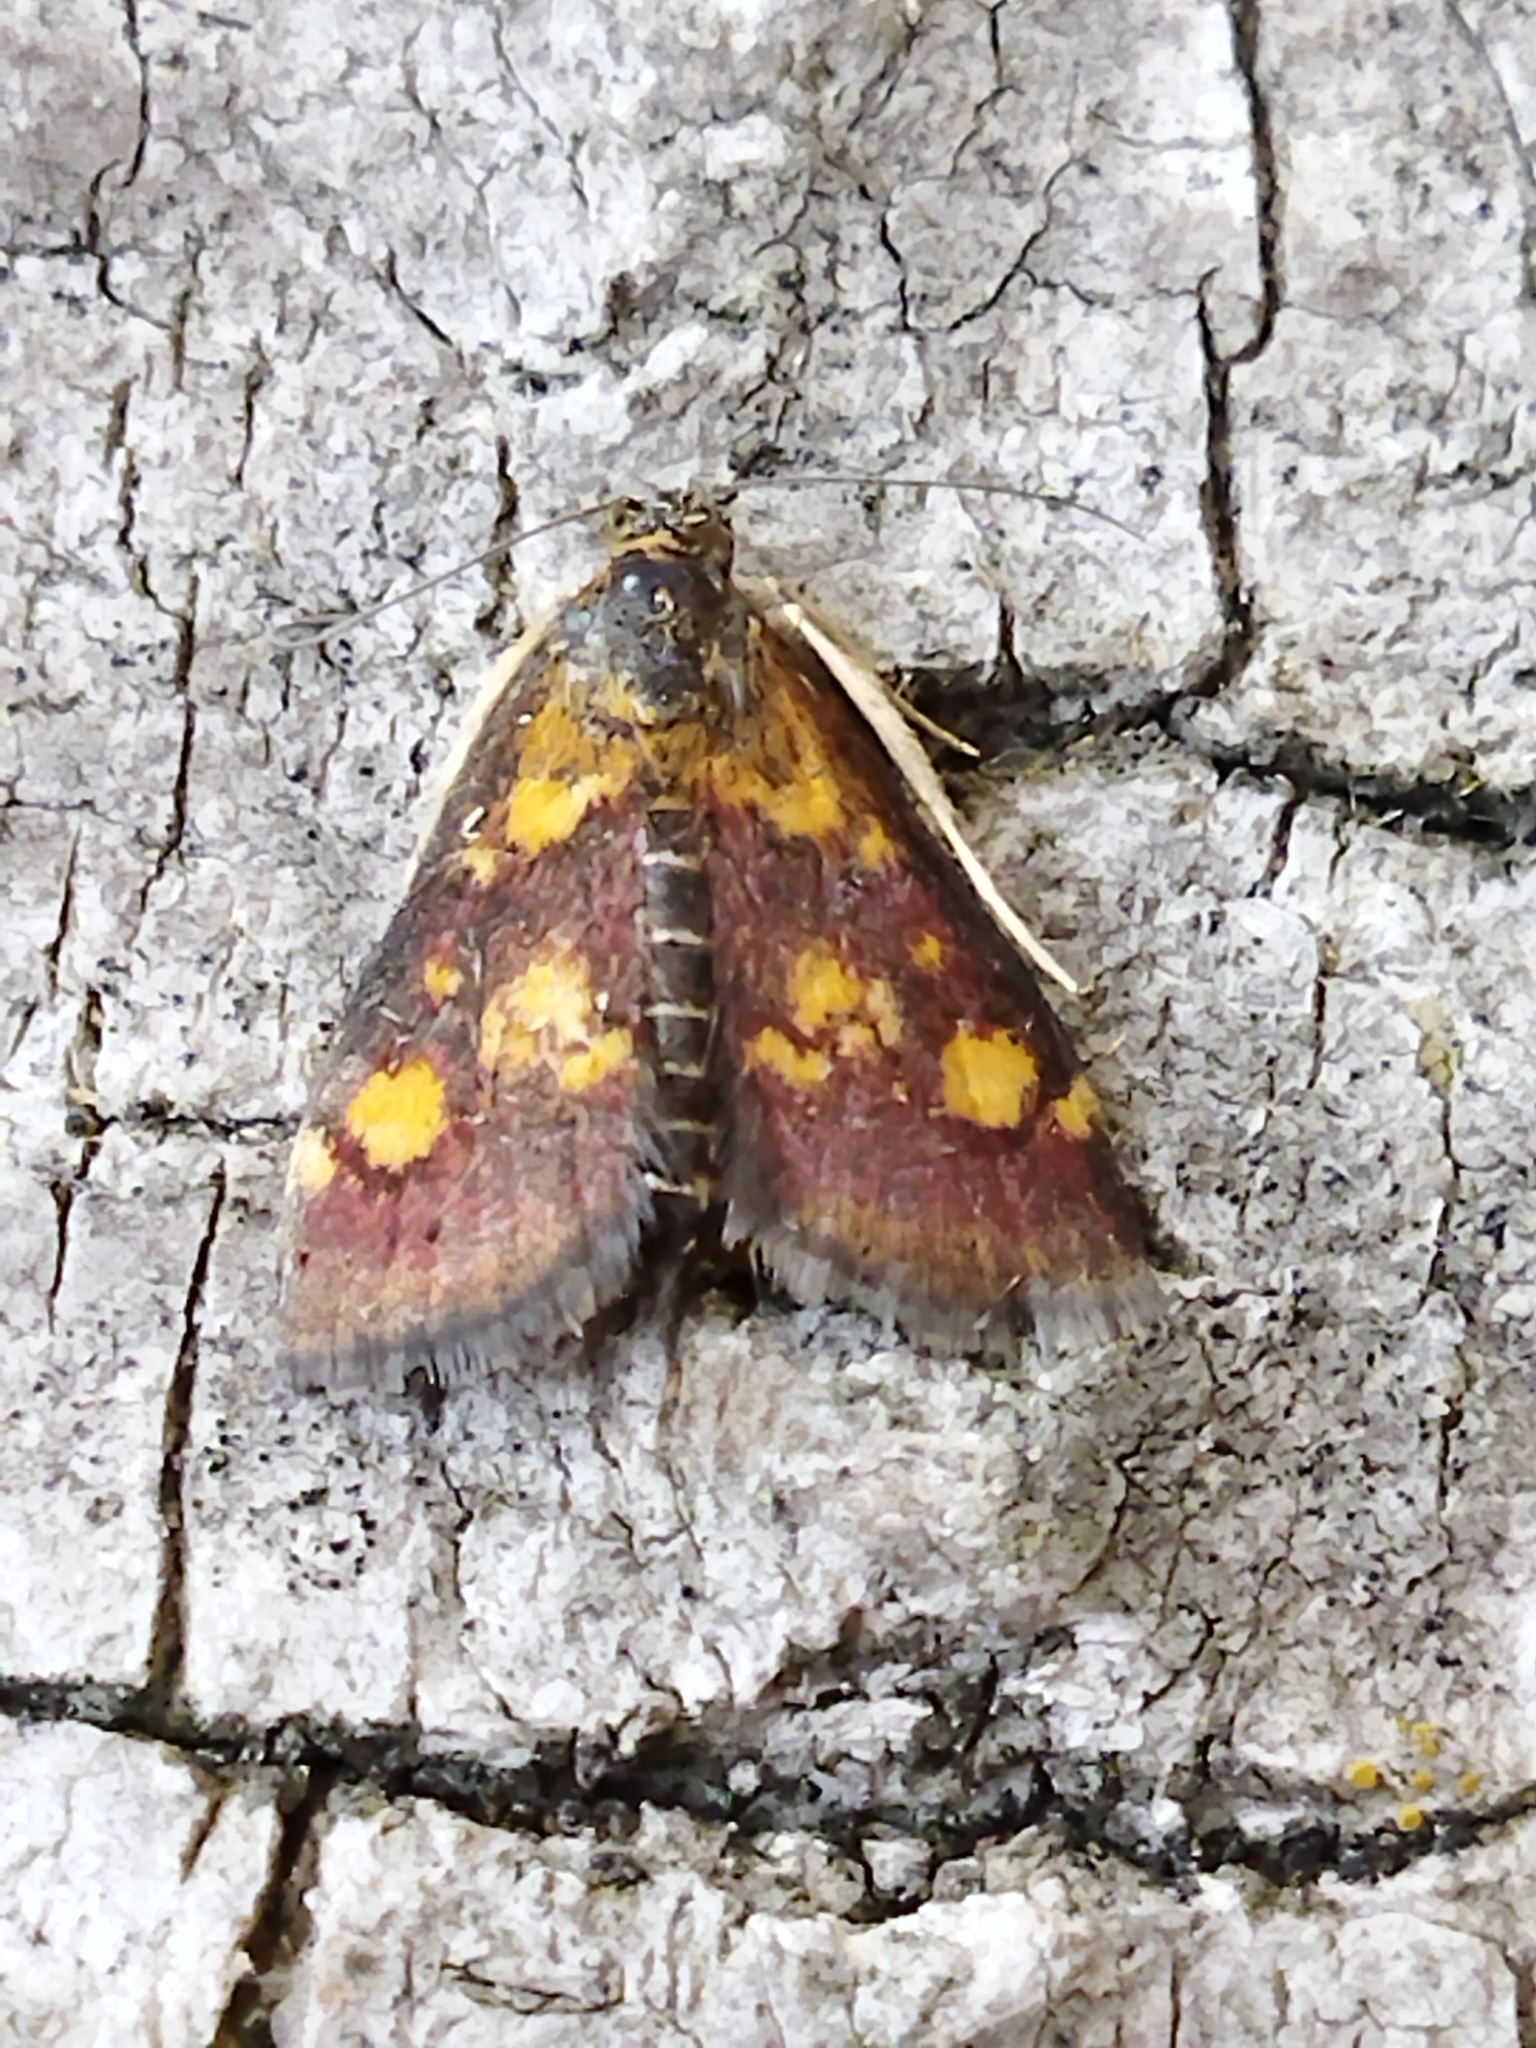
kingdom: Animalia
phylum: Arthropoda
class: Insecta
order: Lepidoptera
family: Crambidae
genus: Pyrausta
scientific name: Pyrausta aurata
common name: Small purple & gold
